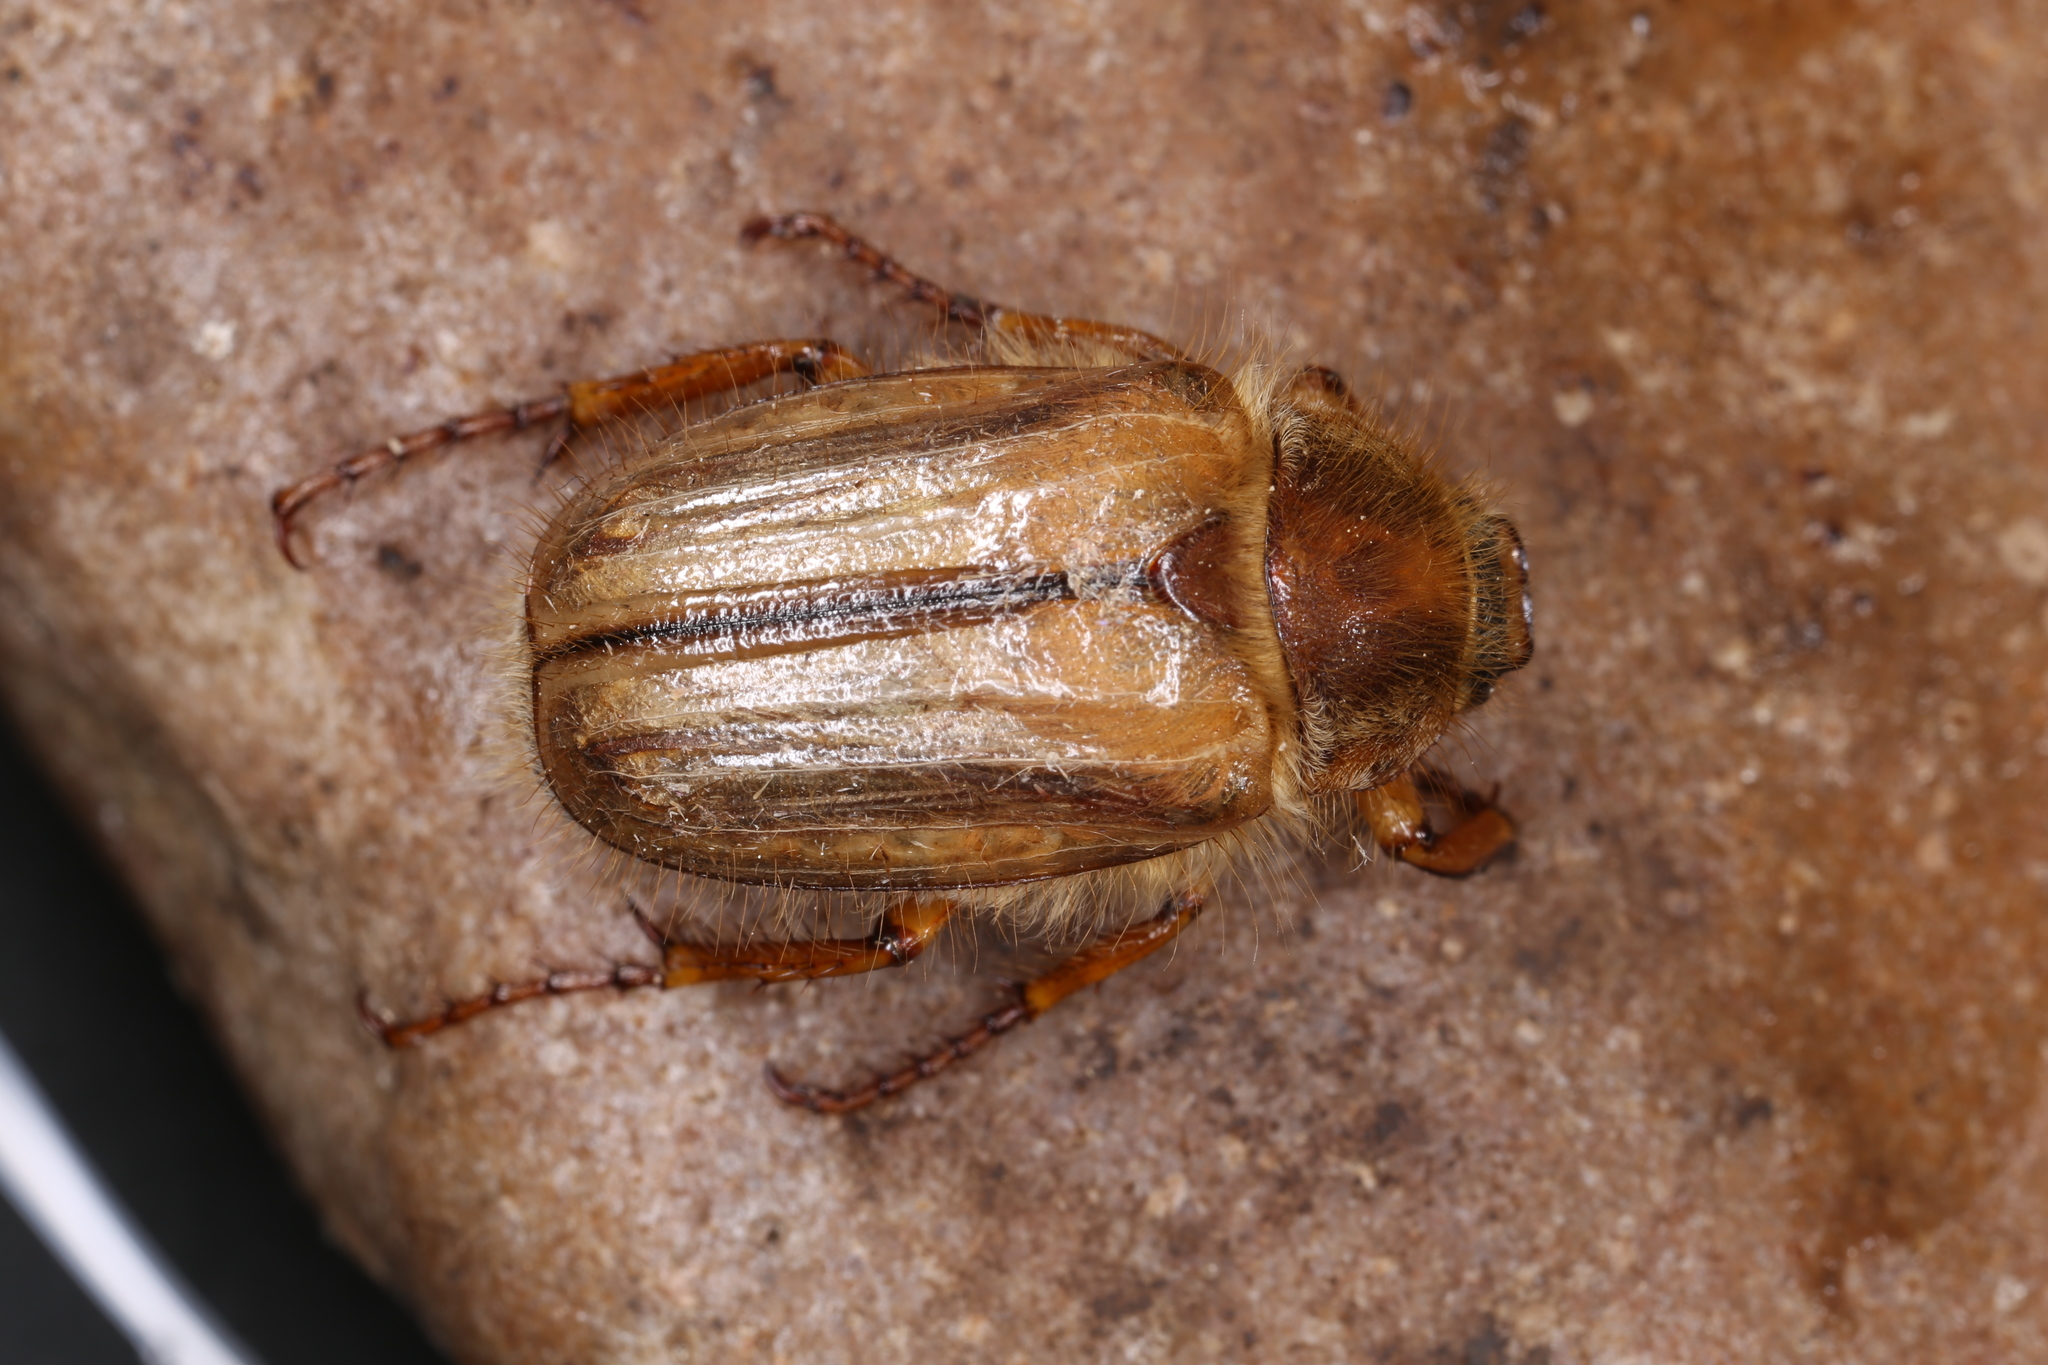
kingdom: Animalia
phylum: Arthropoda
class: Insecta
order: Coleoptera
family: Scarabaeidae
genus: Amphimallon
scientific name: Amphimallon solstitiale
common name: Summer chafer
